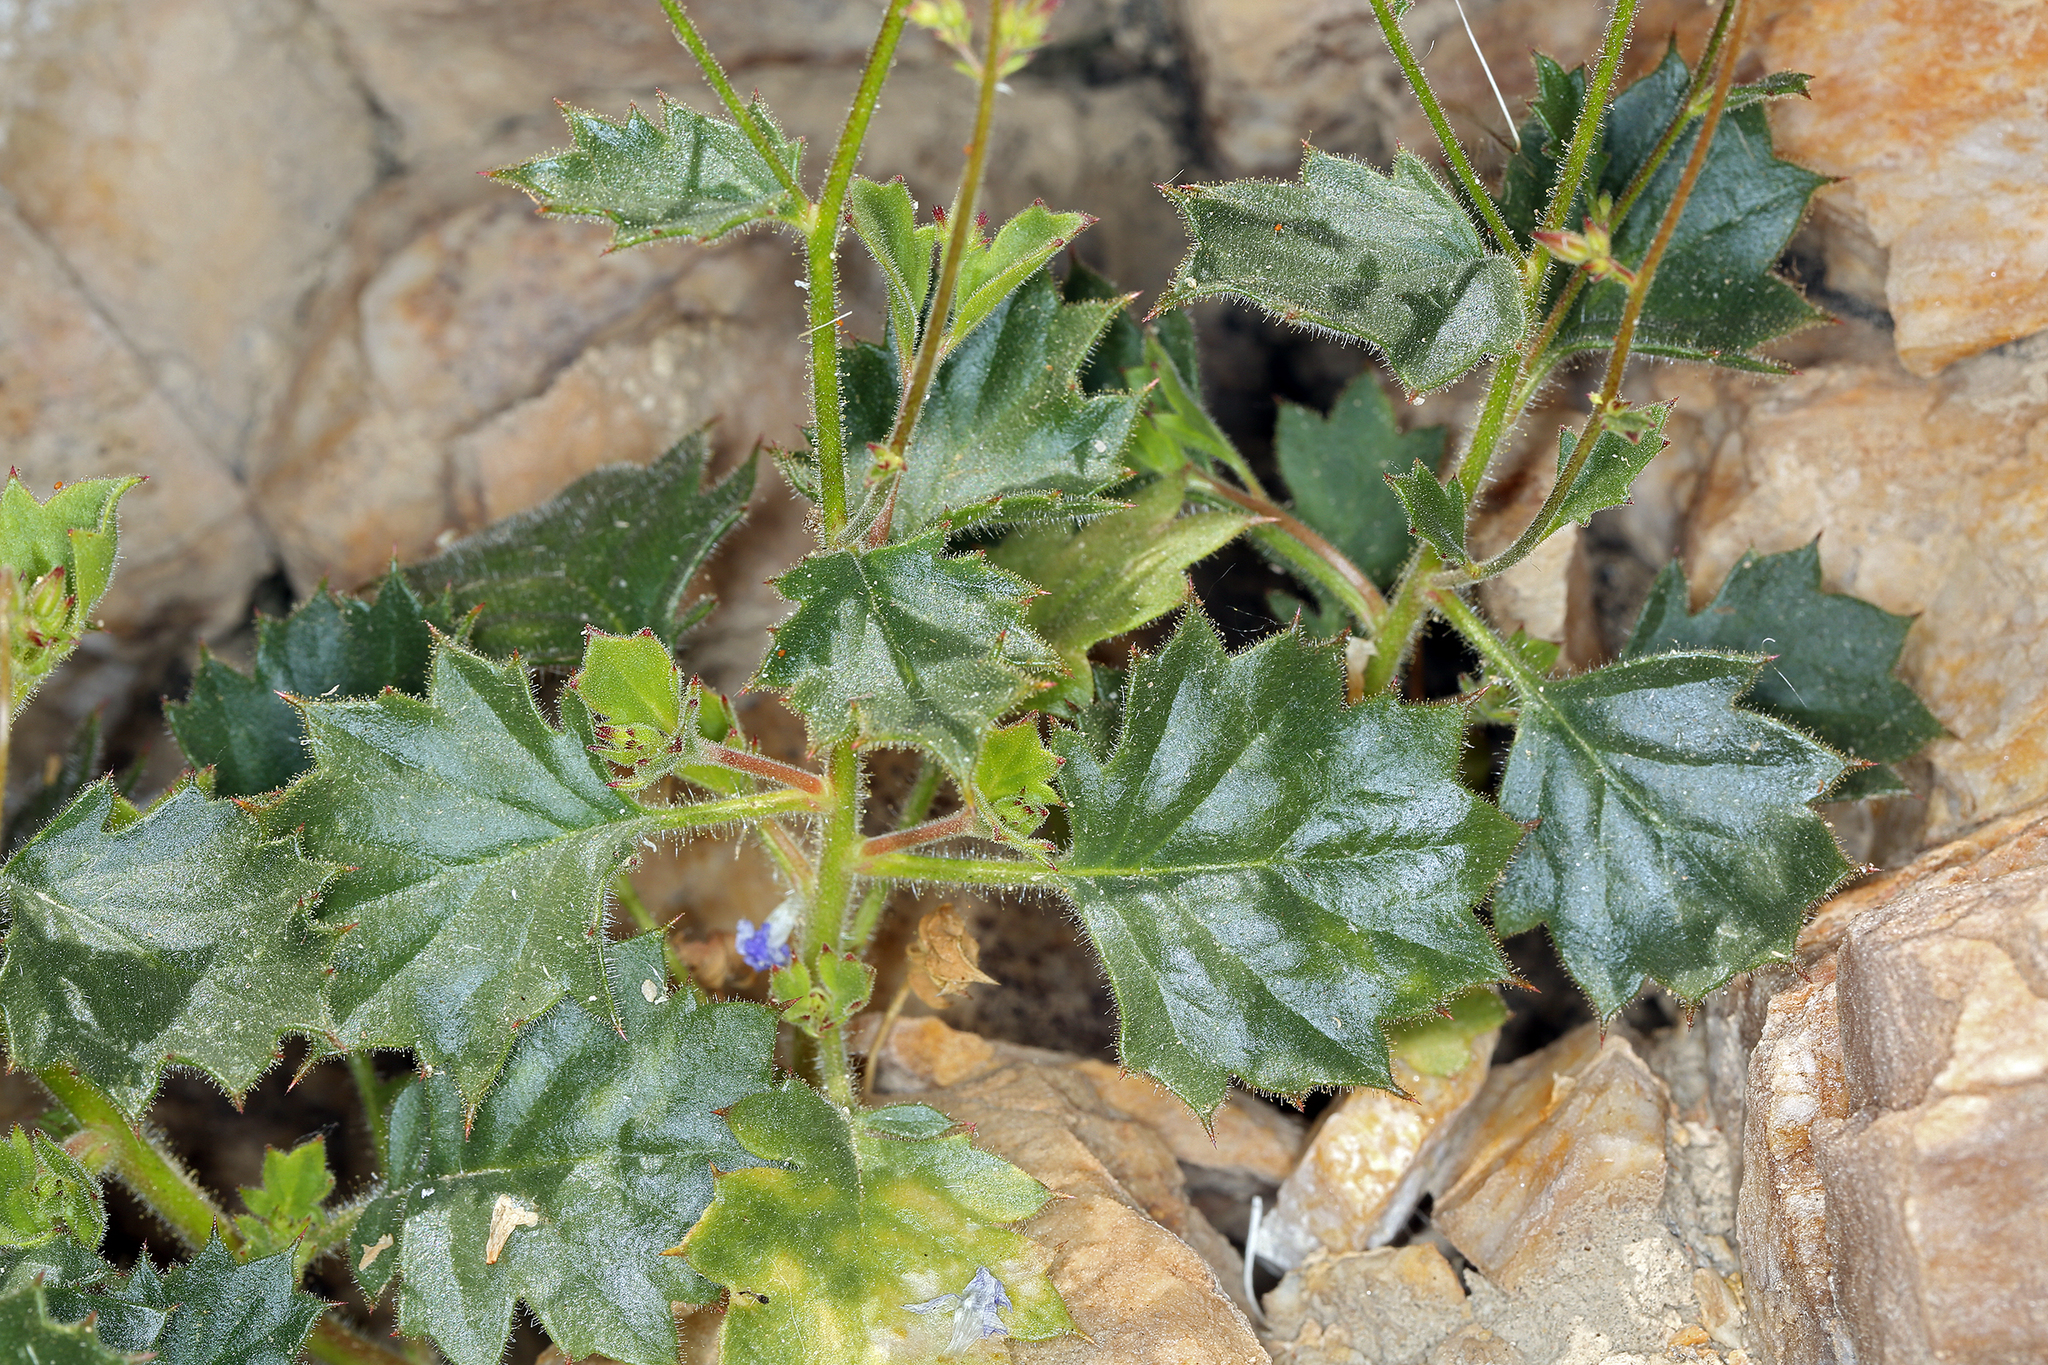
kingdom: Plantae
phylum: Tracheophyta
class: Magnoliopsida
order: Ericales
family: Polemoniaceae
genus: Aliciella
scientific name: Aliciella latifolia
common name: Broad-leaf gilia
